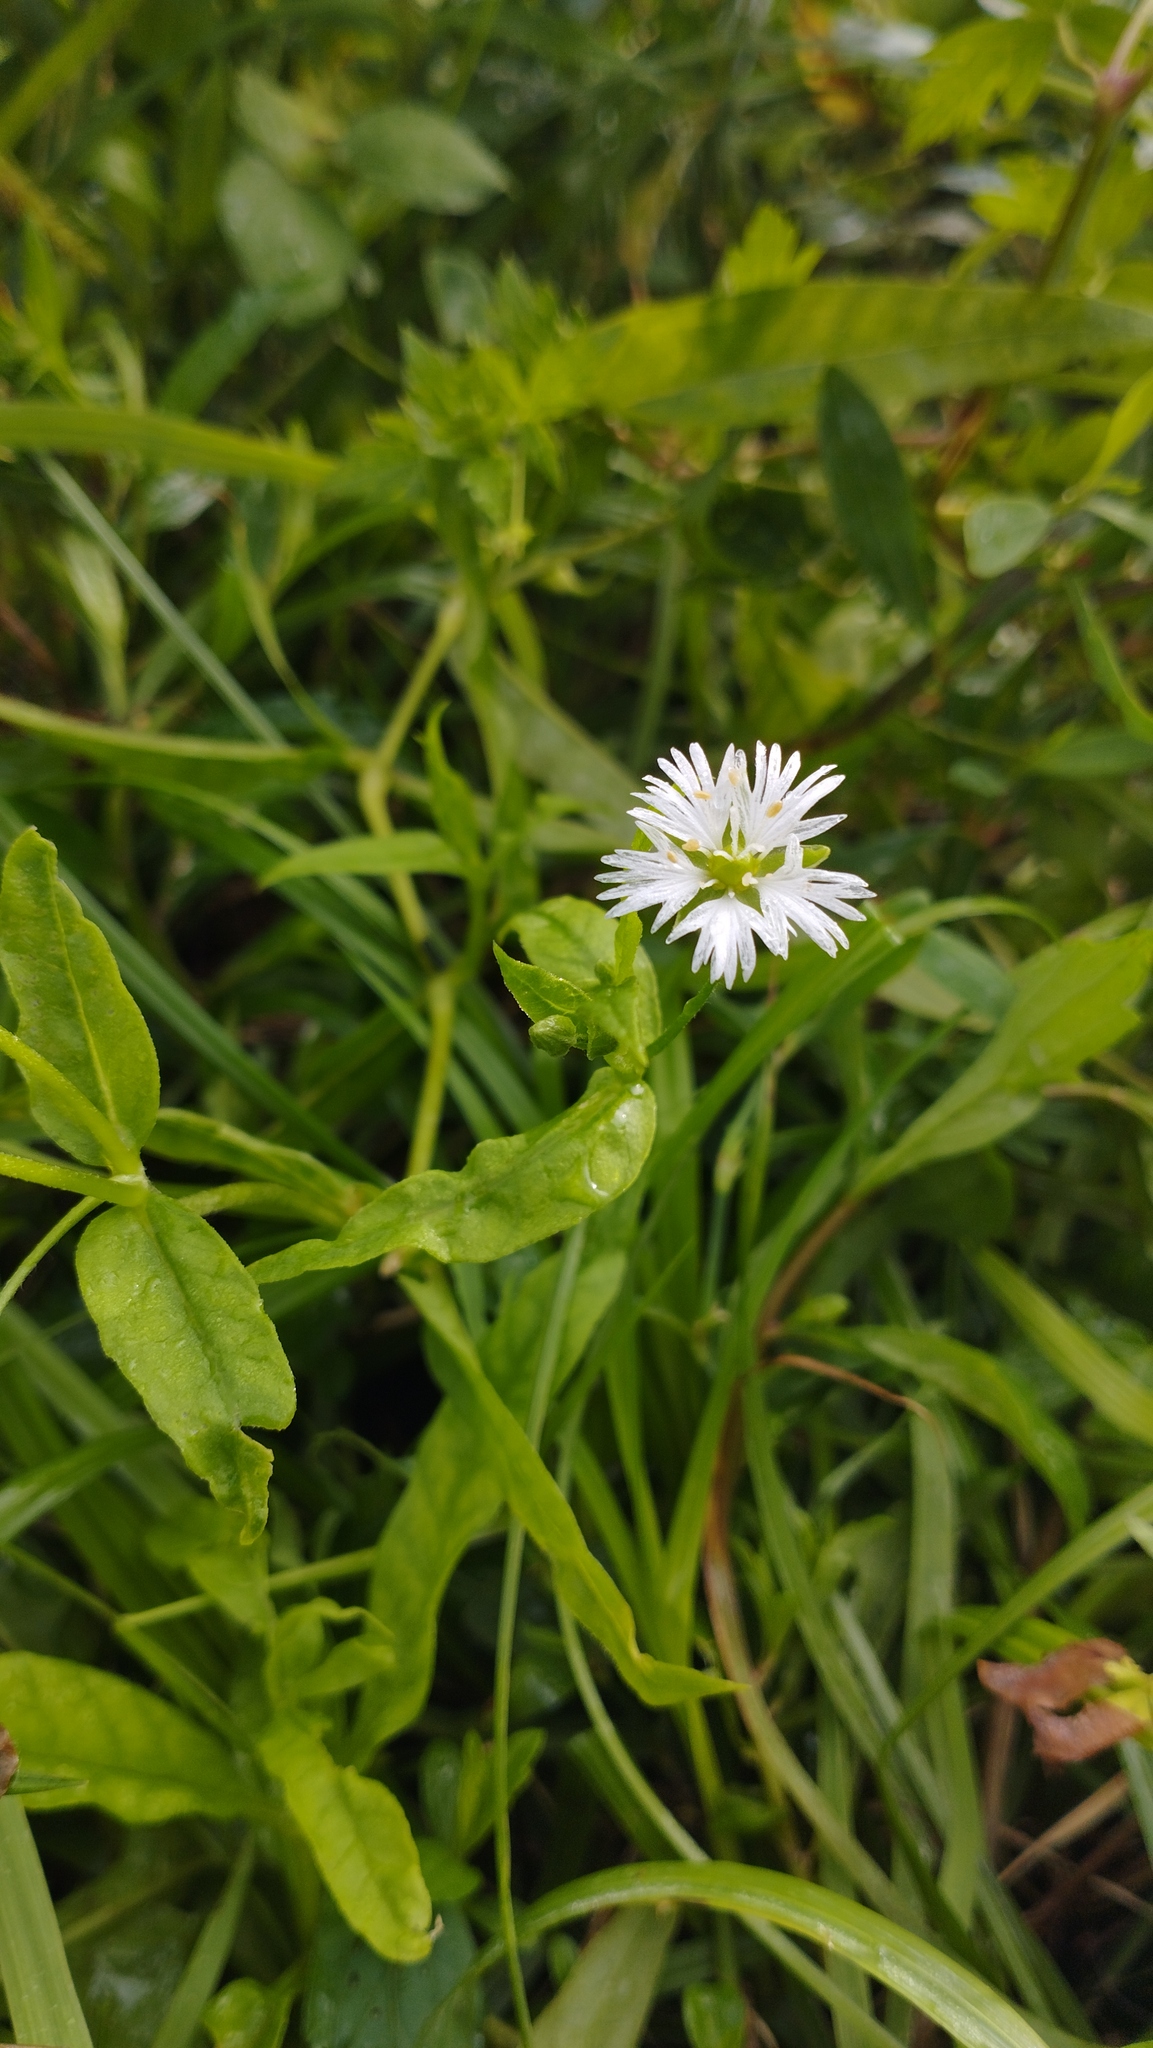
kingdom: Plantae
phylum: Tracheophyta
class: Magnoliopsida
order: Caryophyllales
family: Caryophyllaceae
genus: Stellaria
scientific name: Stellaria radians
